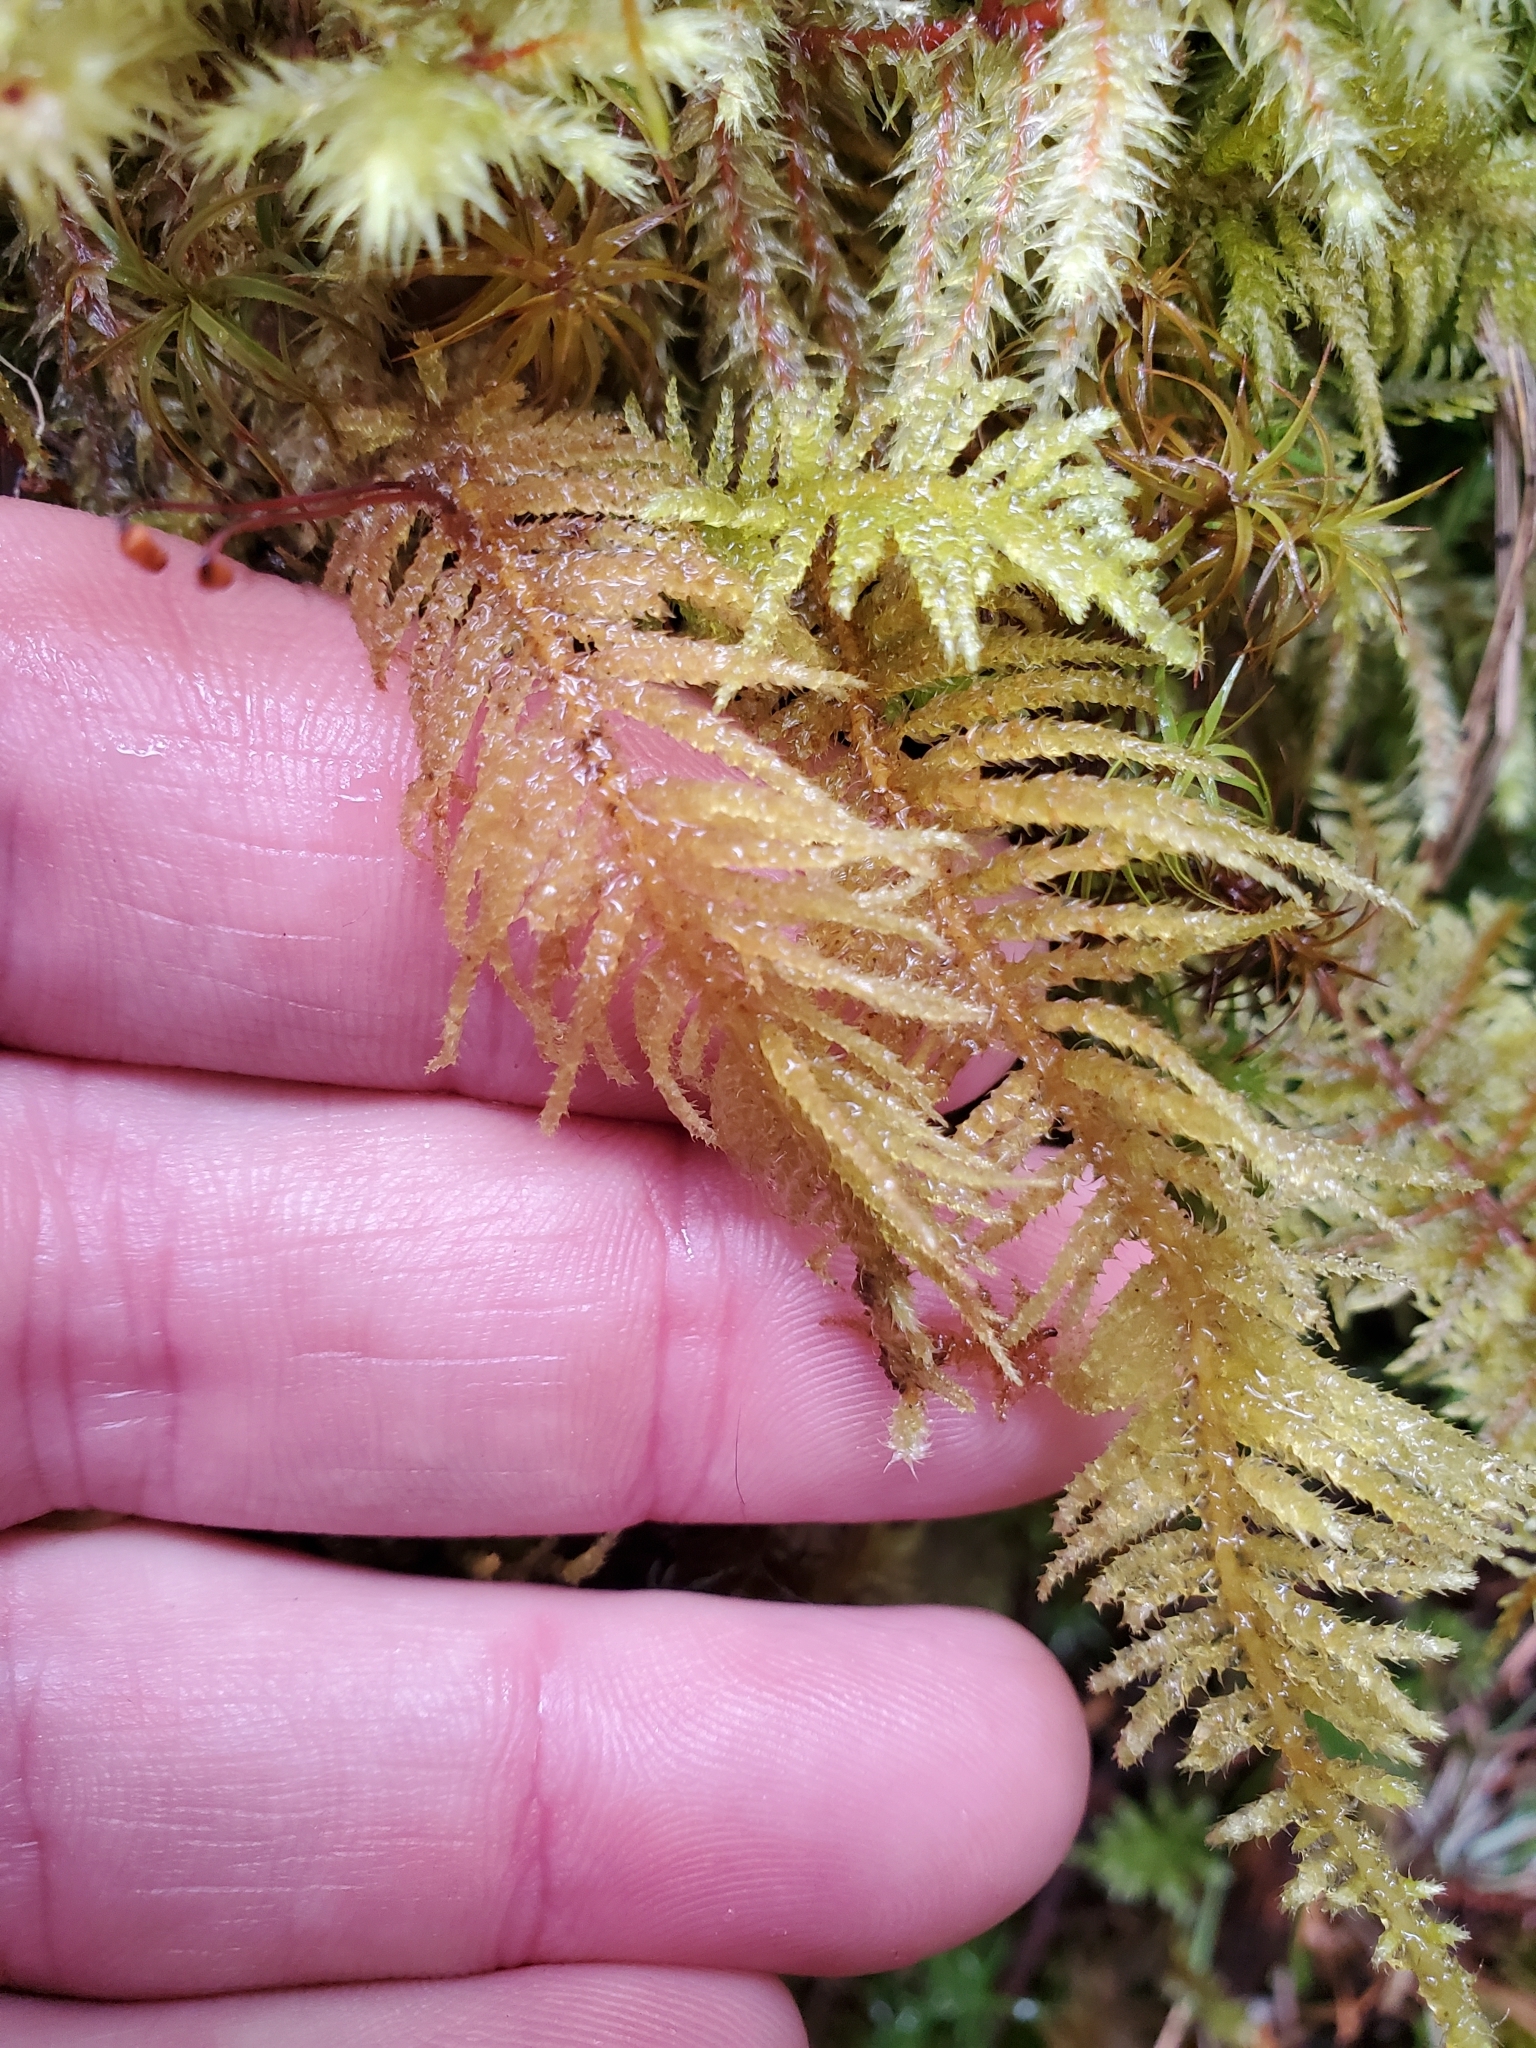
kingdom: Plantae
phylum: Bryophyta
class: Bryopsida
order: Hypnales
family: Brachytheciaceae
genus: Kindbergia
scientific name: Kindbergia oregana
